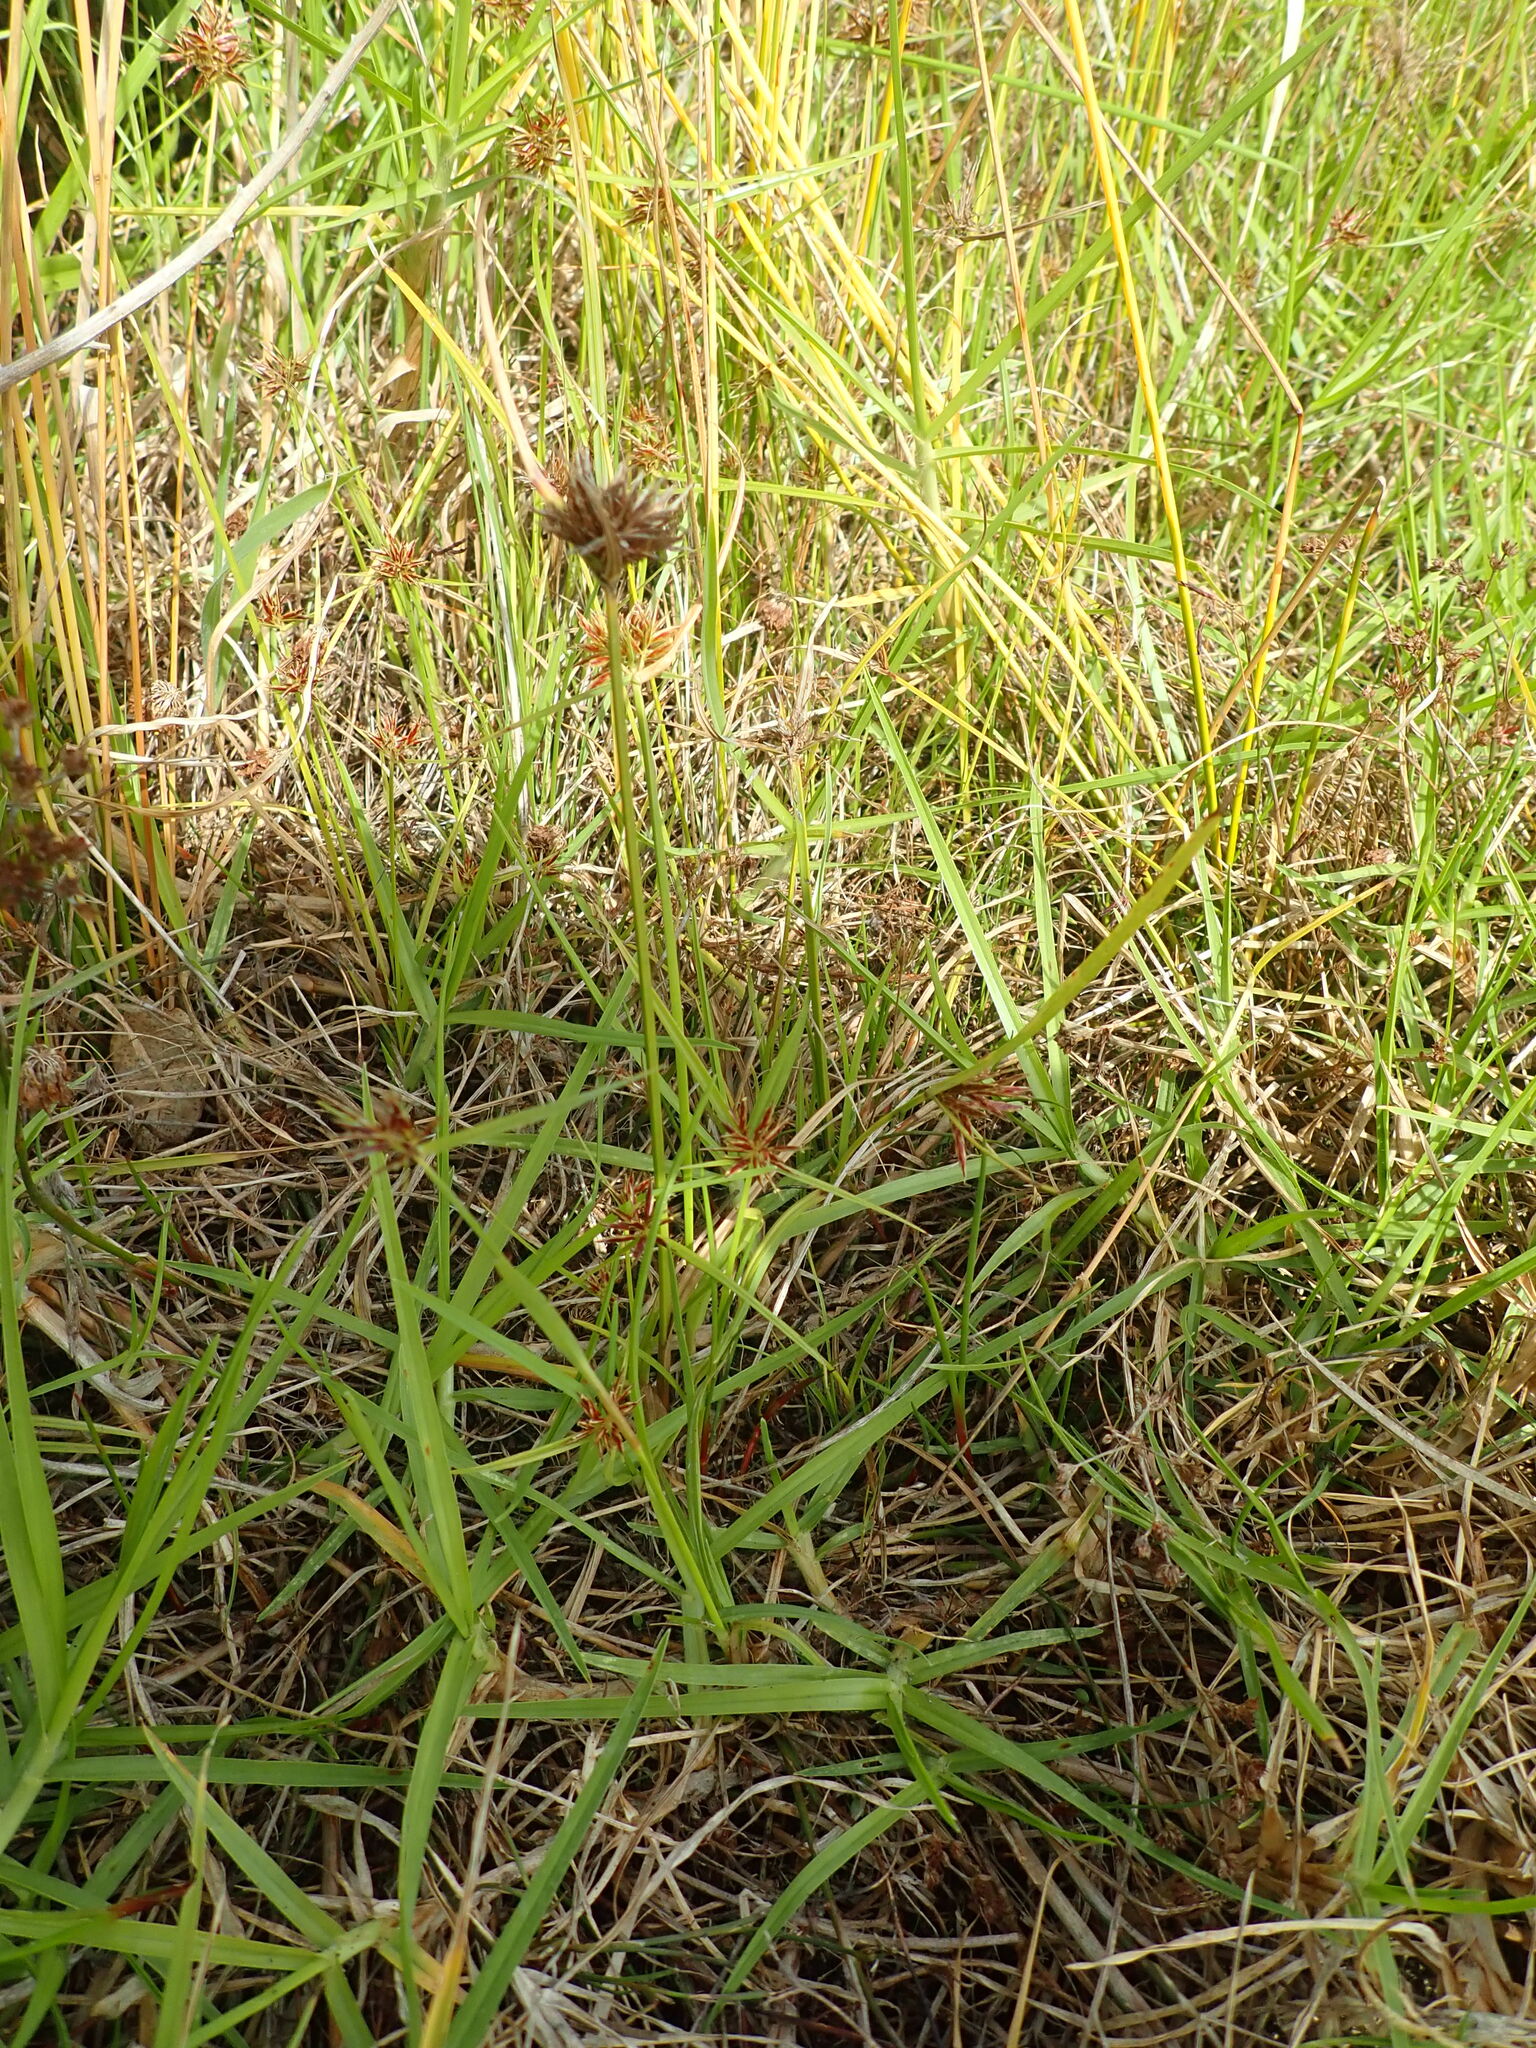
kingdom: Plantae
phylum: Tracheophyta
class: Liliopsida
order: Poales
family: Cyperaceae
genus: Cyperus
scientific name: Cyperus congestus
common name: Dense flat sedge
